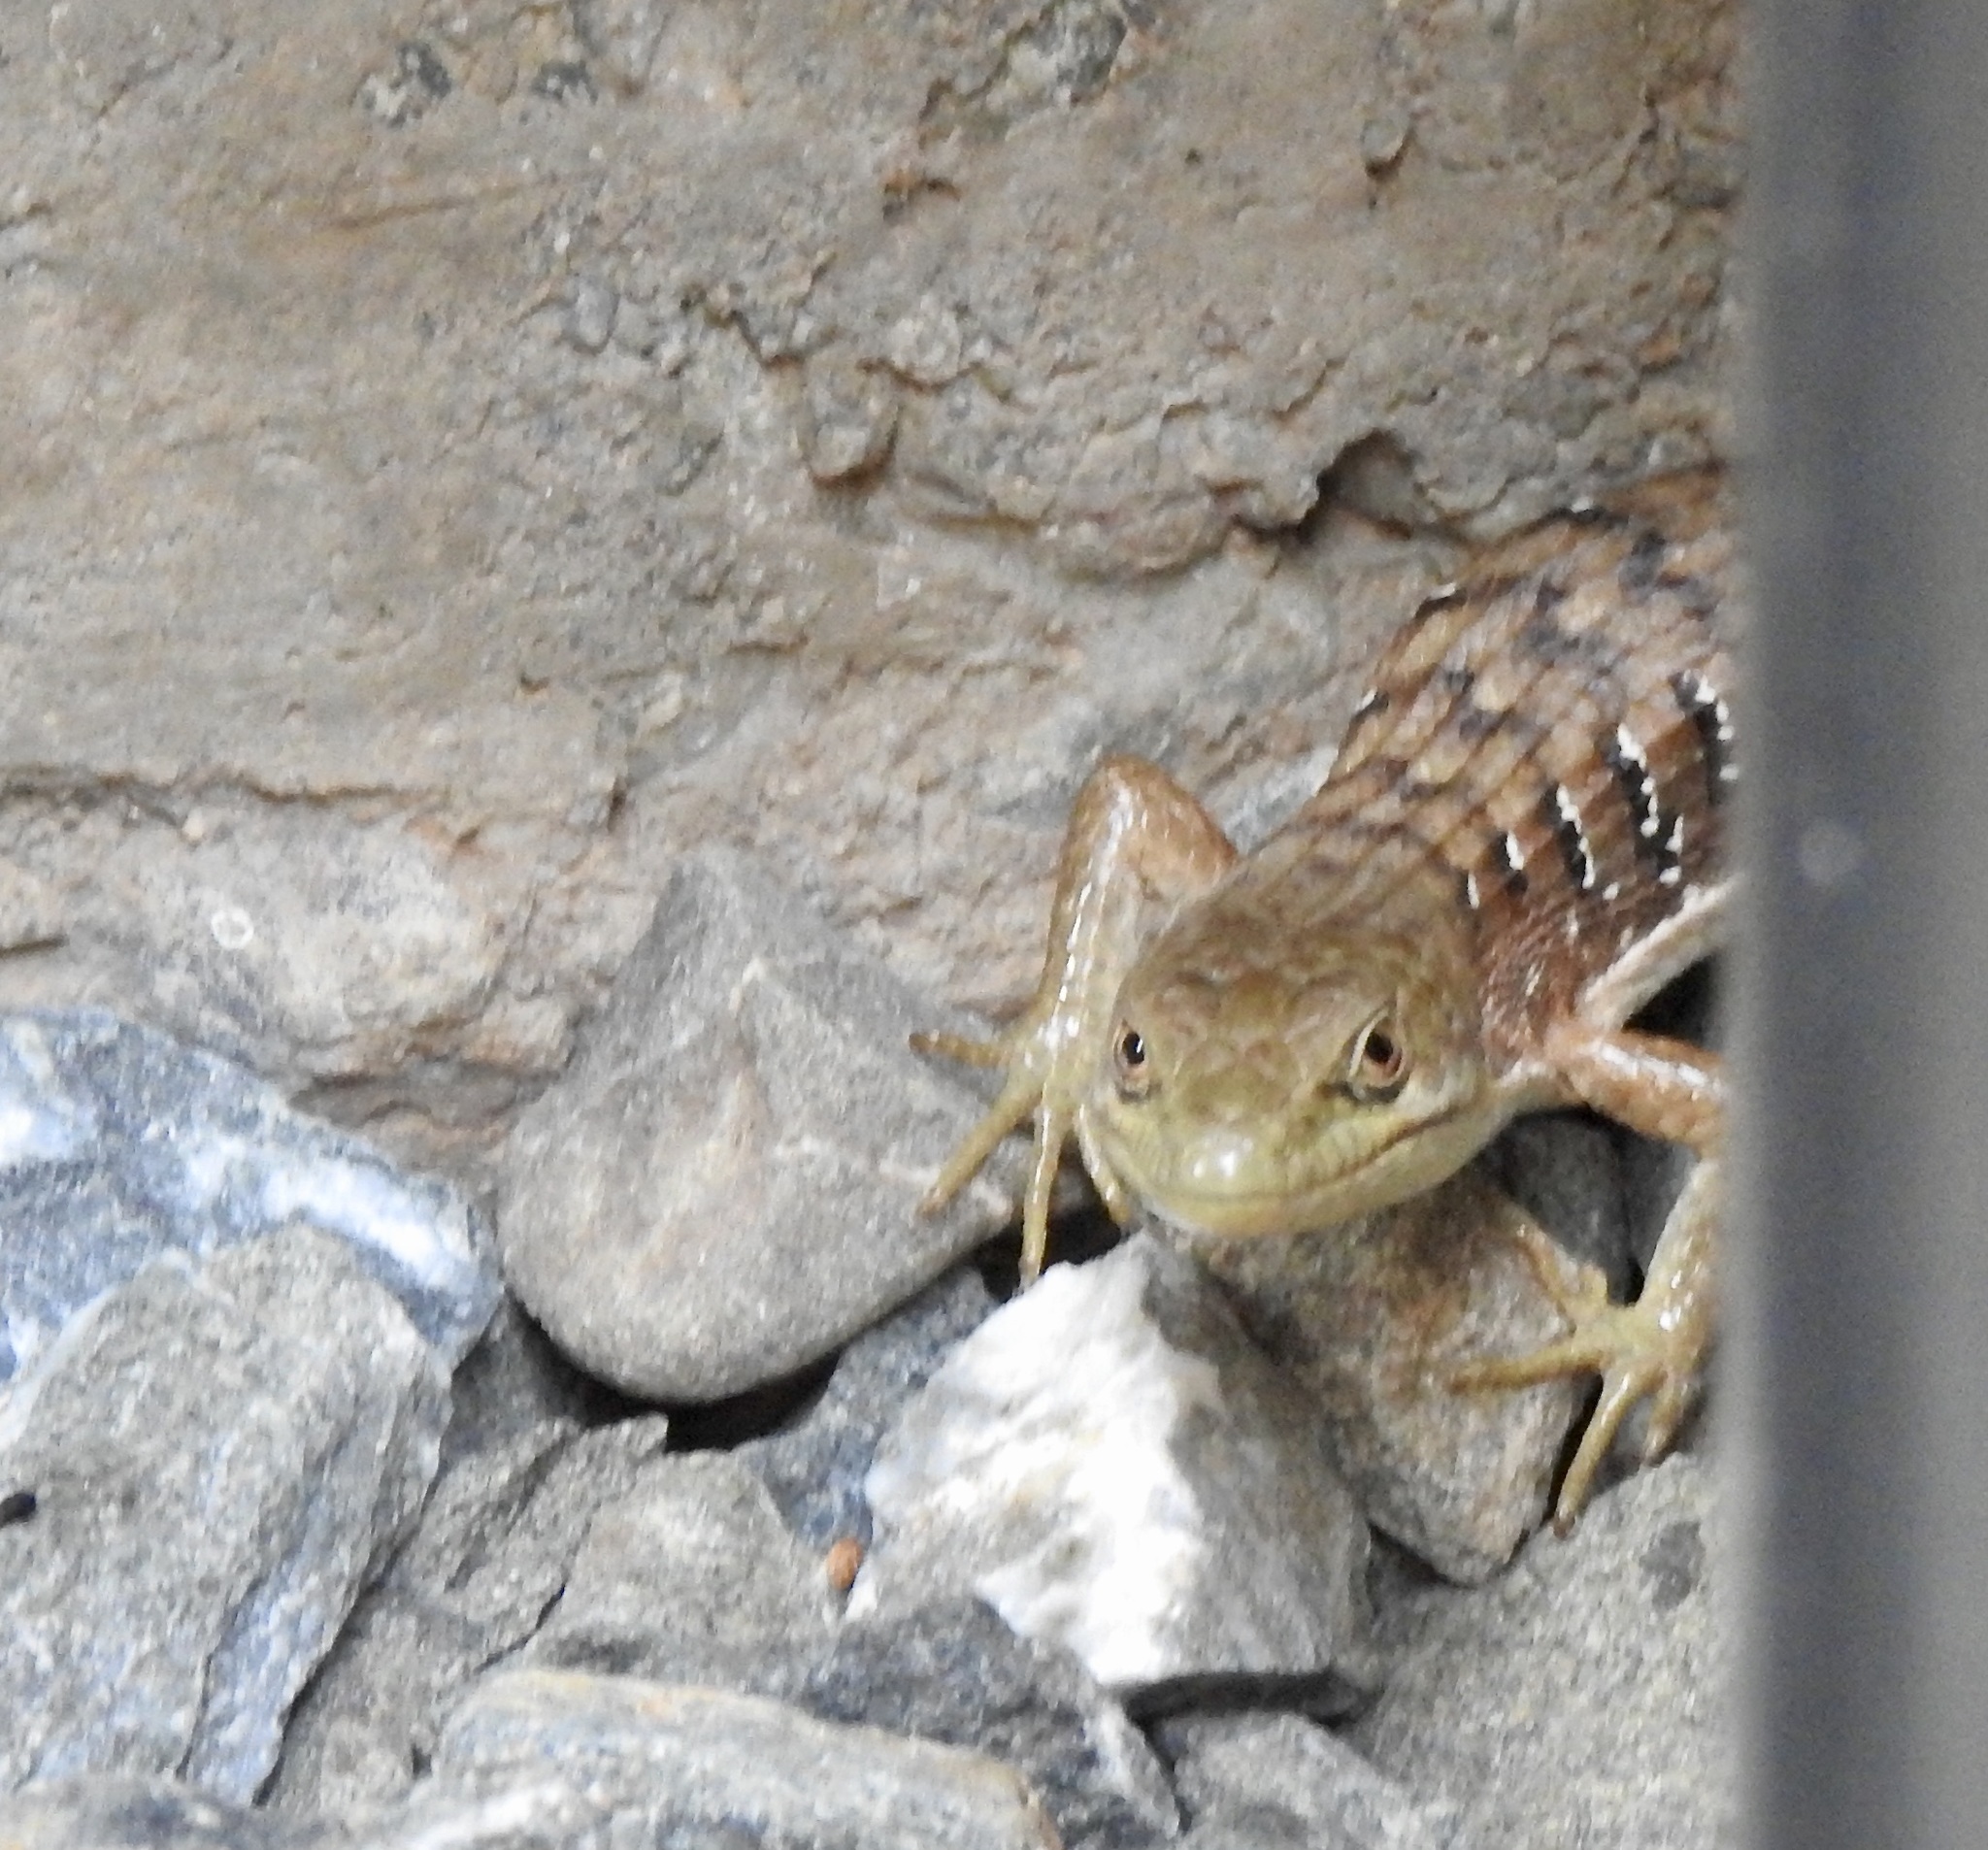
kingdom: Animalia
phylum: Chordata
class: Squamata
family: Anguidae
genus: Elgaria
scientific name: Elgaria multicarinata
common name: Southern alligator lizard
